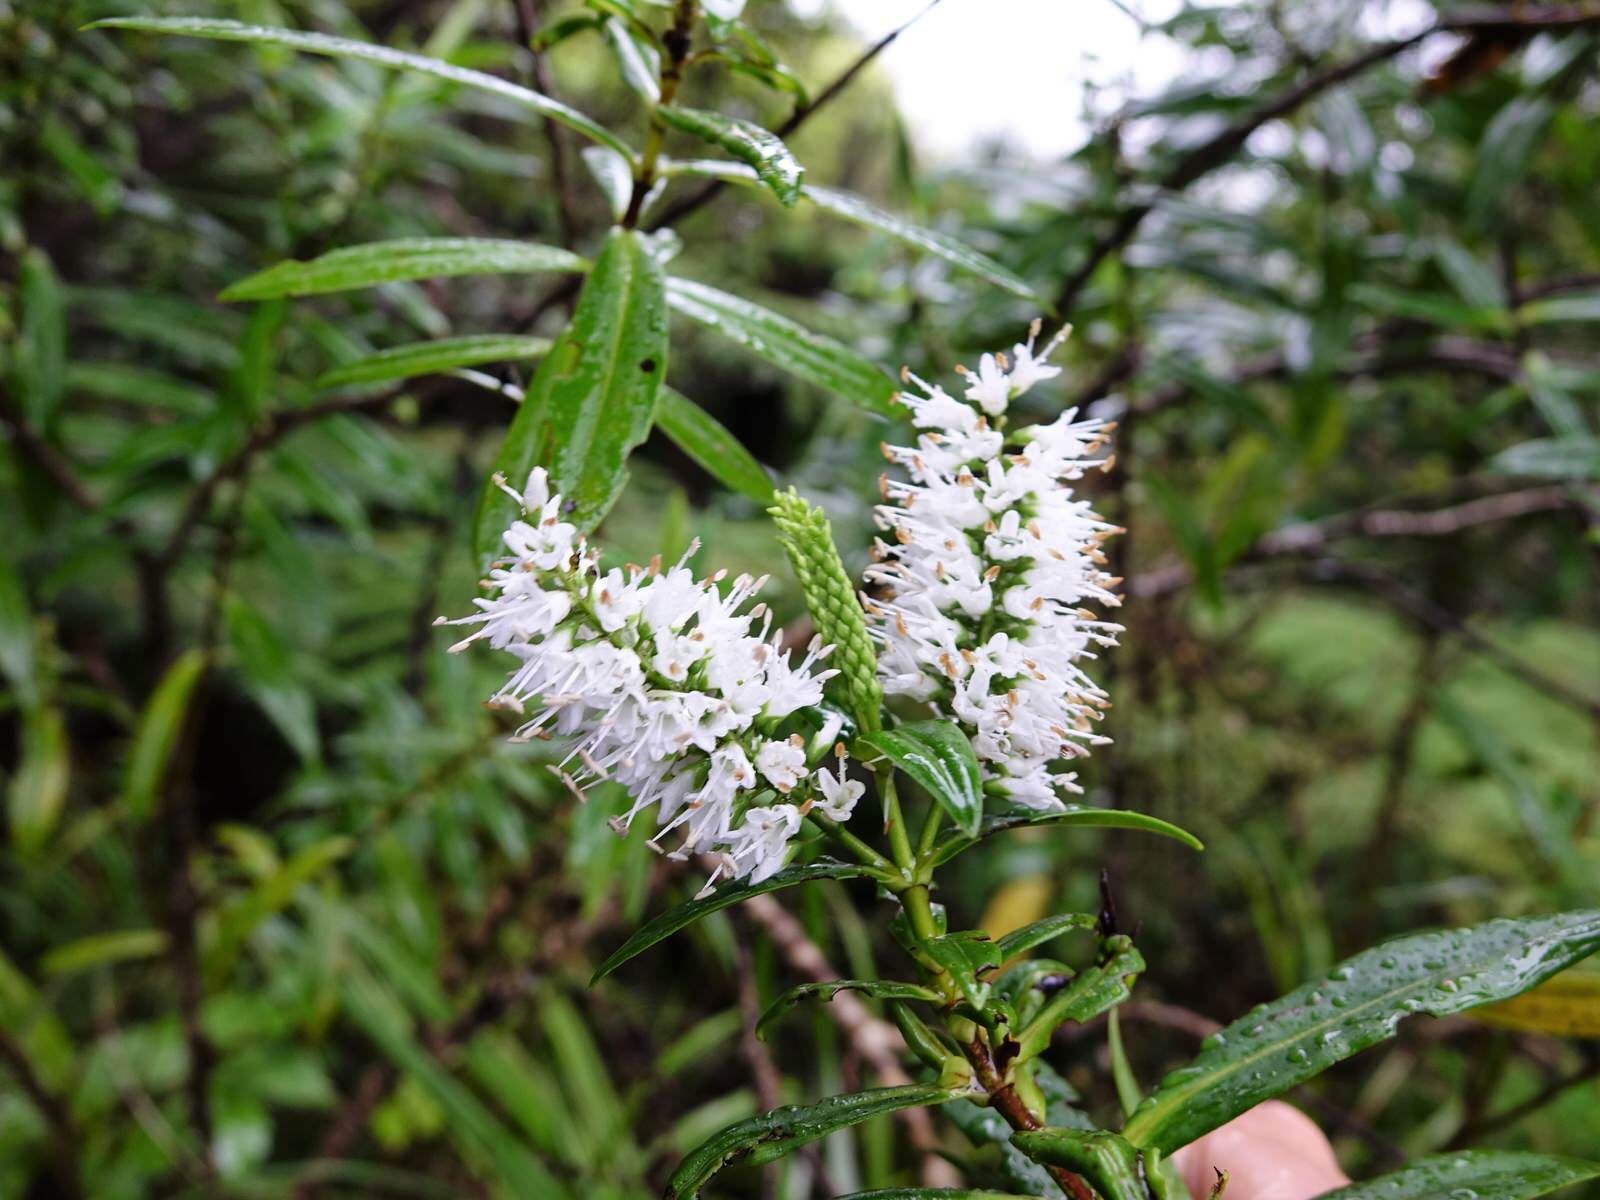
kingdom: Plantae
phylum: Tracheophyta
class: Magnoliopsida
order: Lamiales
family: Plantaginaceae
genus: Veronica
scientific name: Veronica macrocarpa
